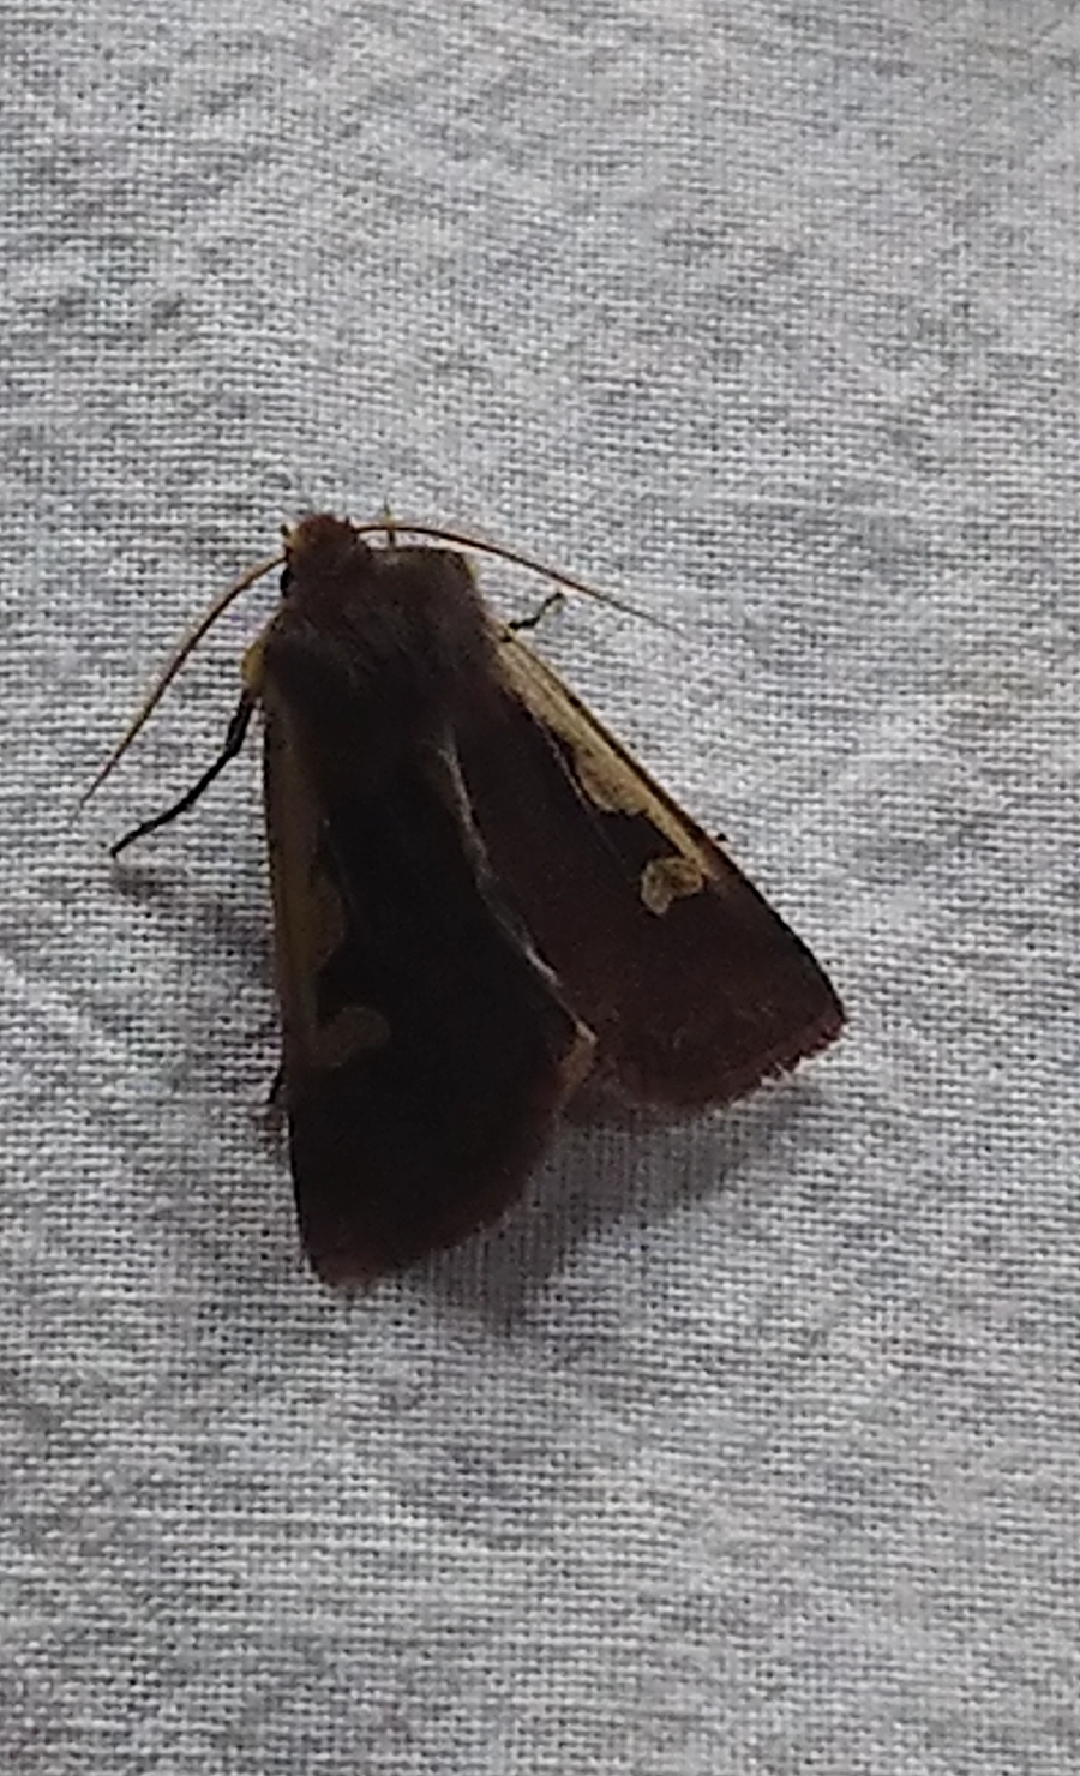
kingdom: Animalia
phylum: Arthropoda
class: Insecta
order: Lepidoptera
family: Noctuidae
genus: Pareuxoa
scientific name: Pareuxoa
